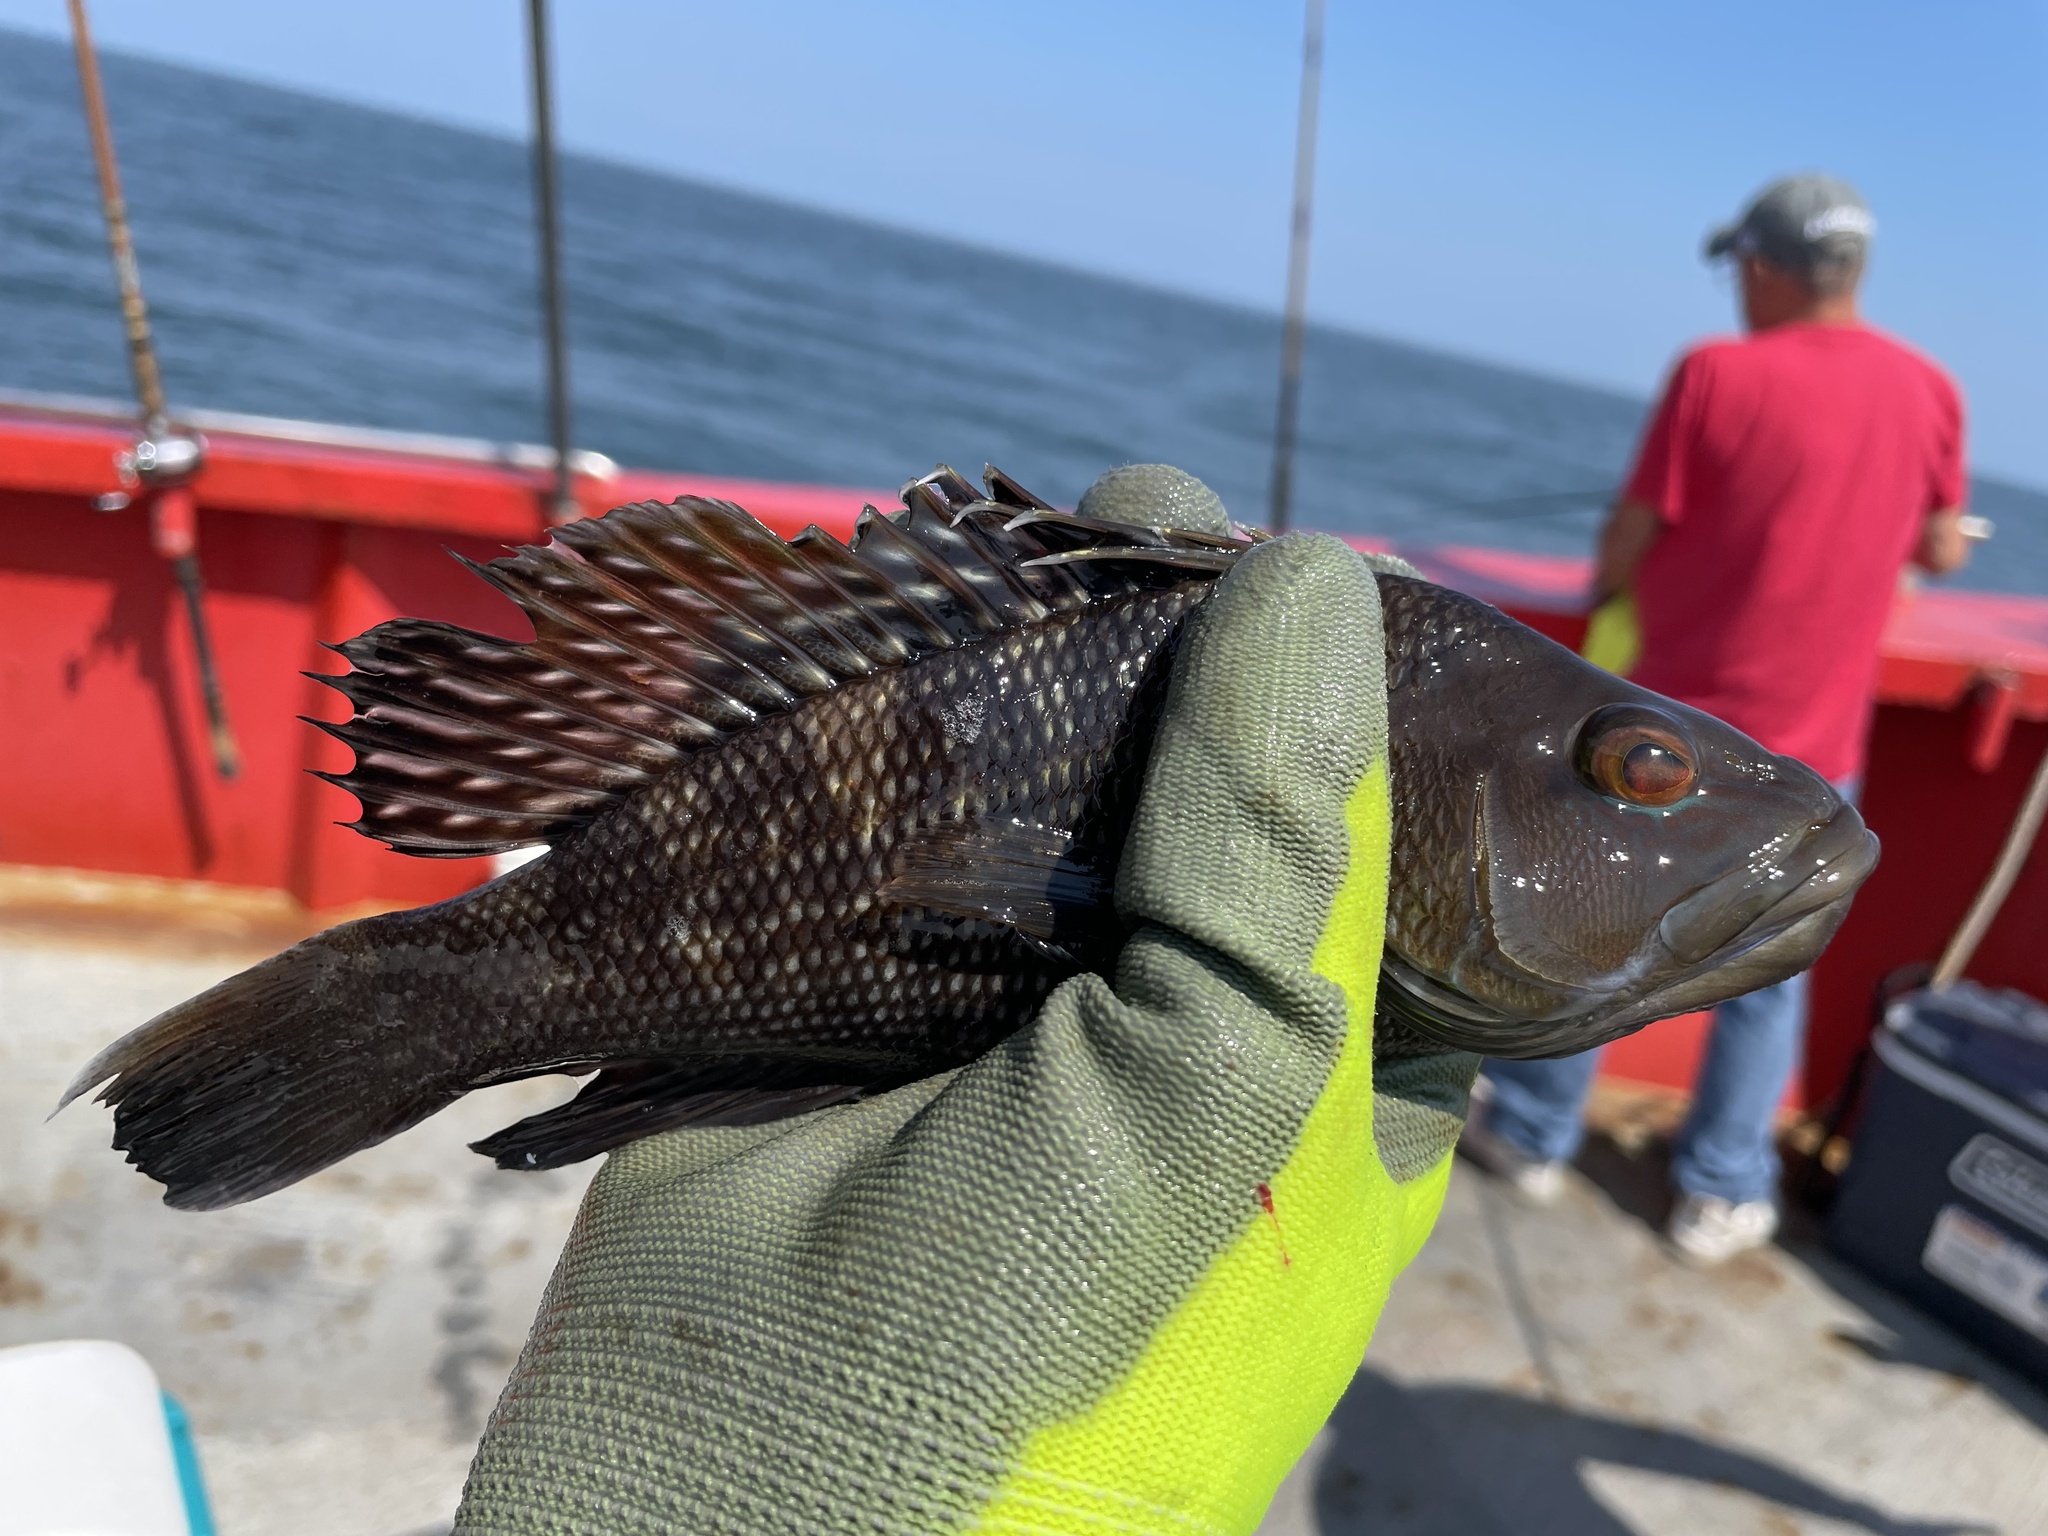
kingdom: Animalia
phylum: Chordata
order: Perciformes
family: Serranidae
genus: Centropristis
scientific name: Centropristis striata
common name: Black sea bass
